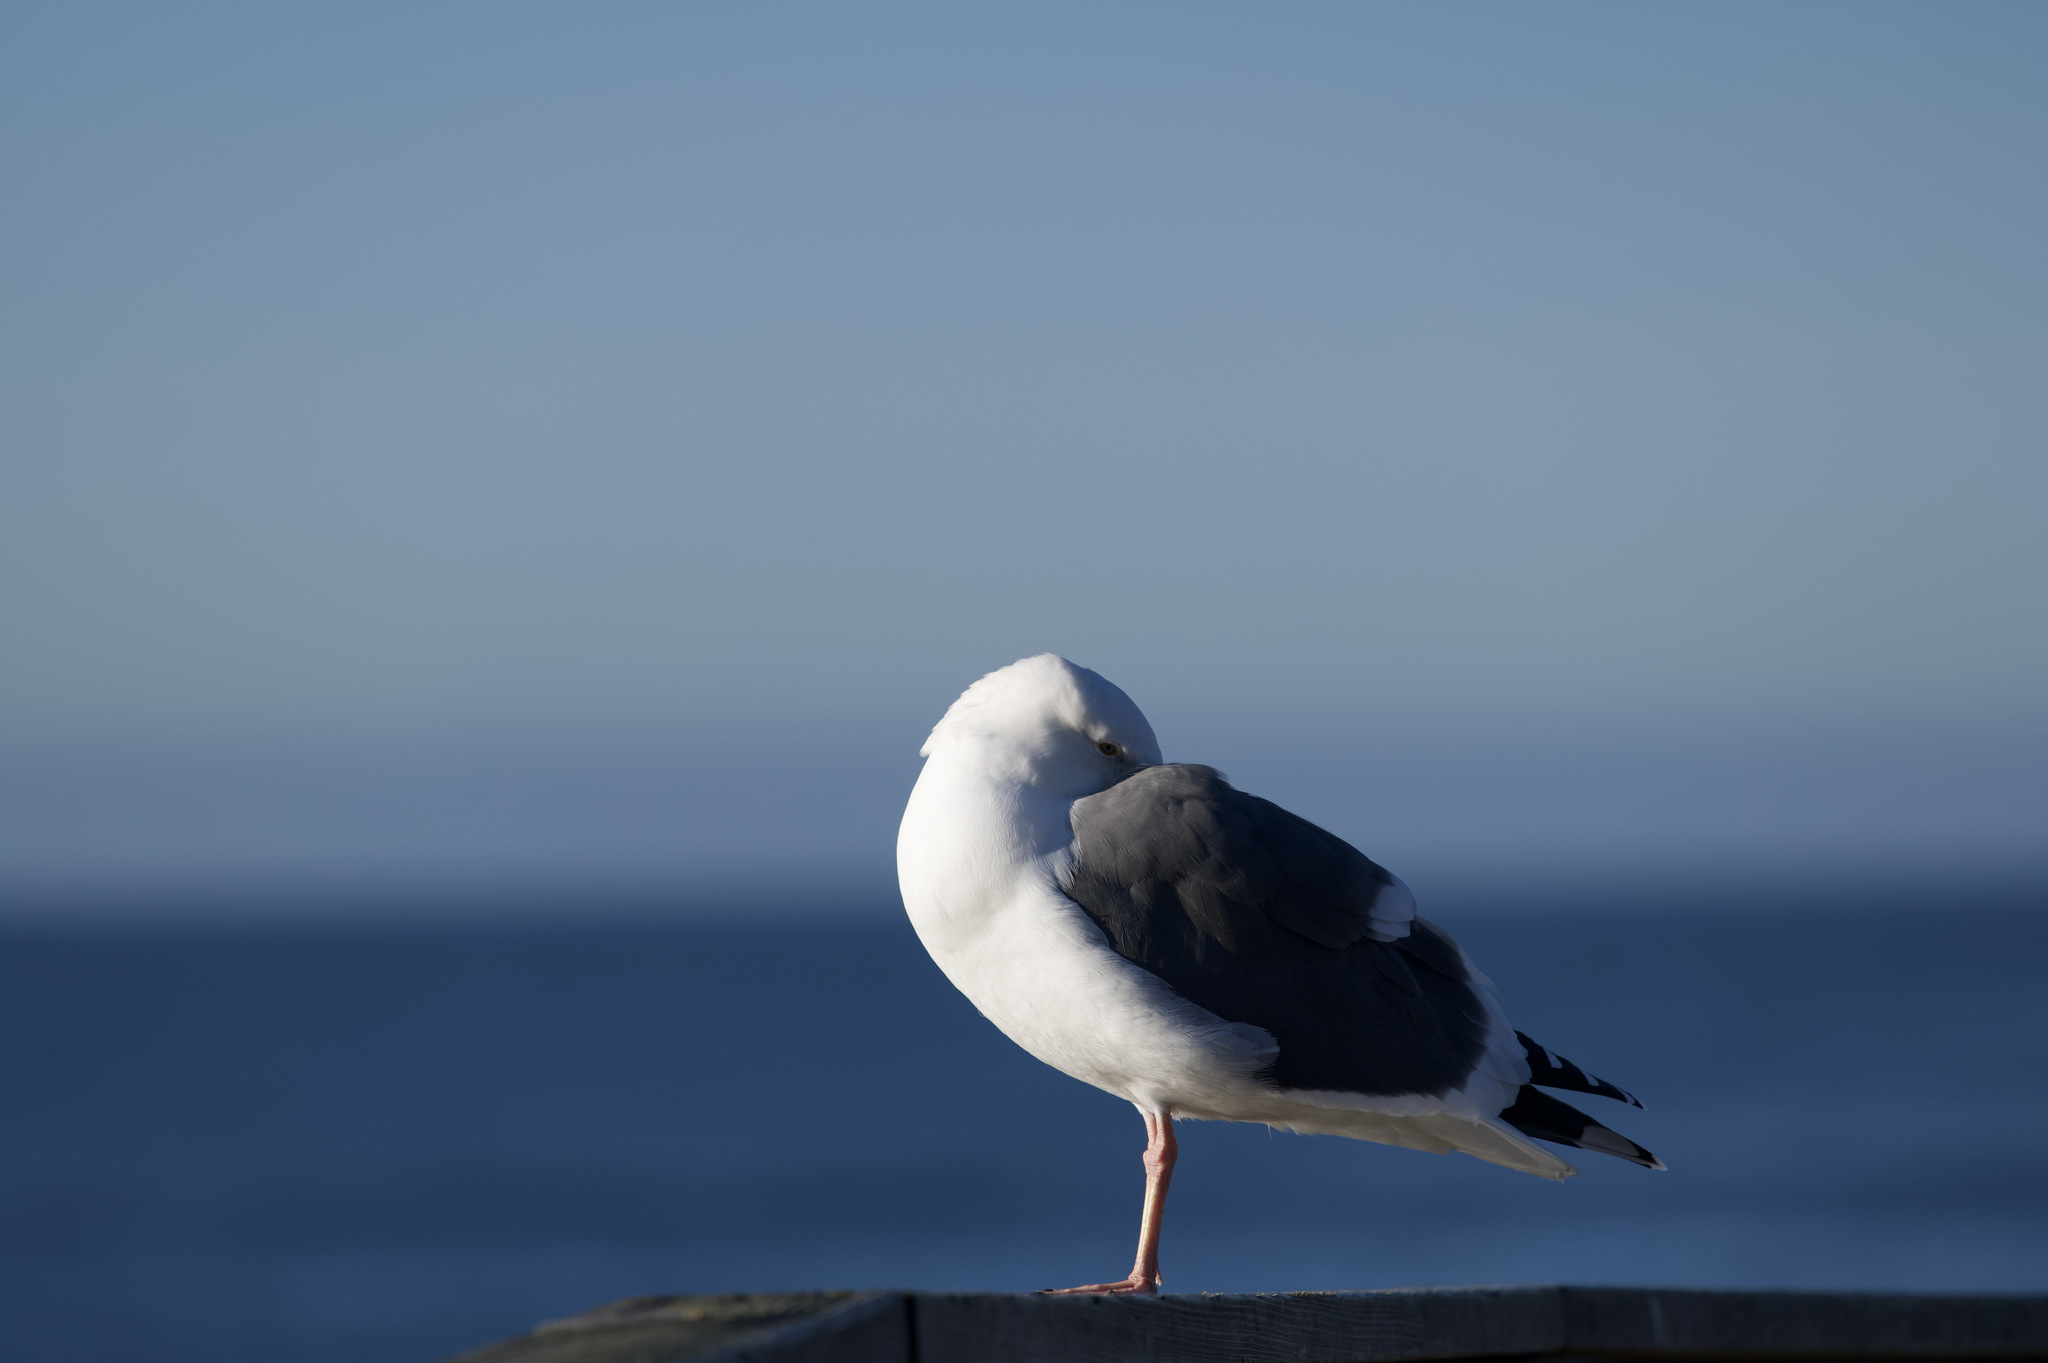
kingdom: Animalia
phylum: Chordata
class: Aves
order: Charadriiformes
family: Laridae
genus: Larus
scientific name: Larus occidentalis
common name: Western gull
